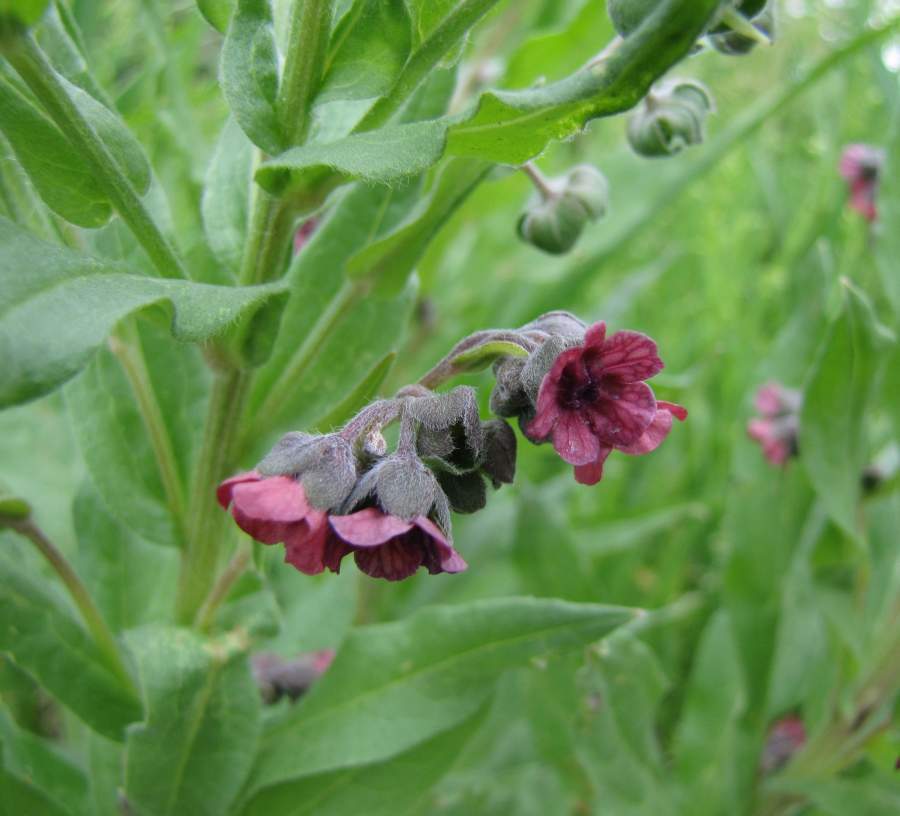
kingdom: Plantae
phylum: Tracheophyta
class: Magnoliopsida
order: Boraginales
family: Boraginaceae
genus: Cynoglossum
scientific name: Cynoglossum officinale
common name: Hound's-tongue
